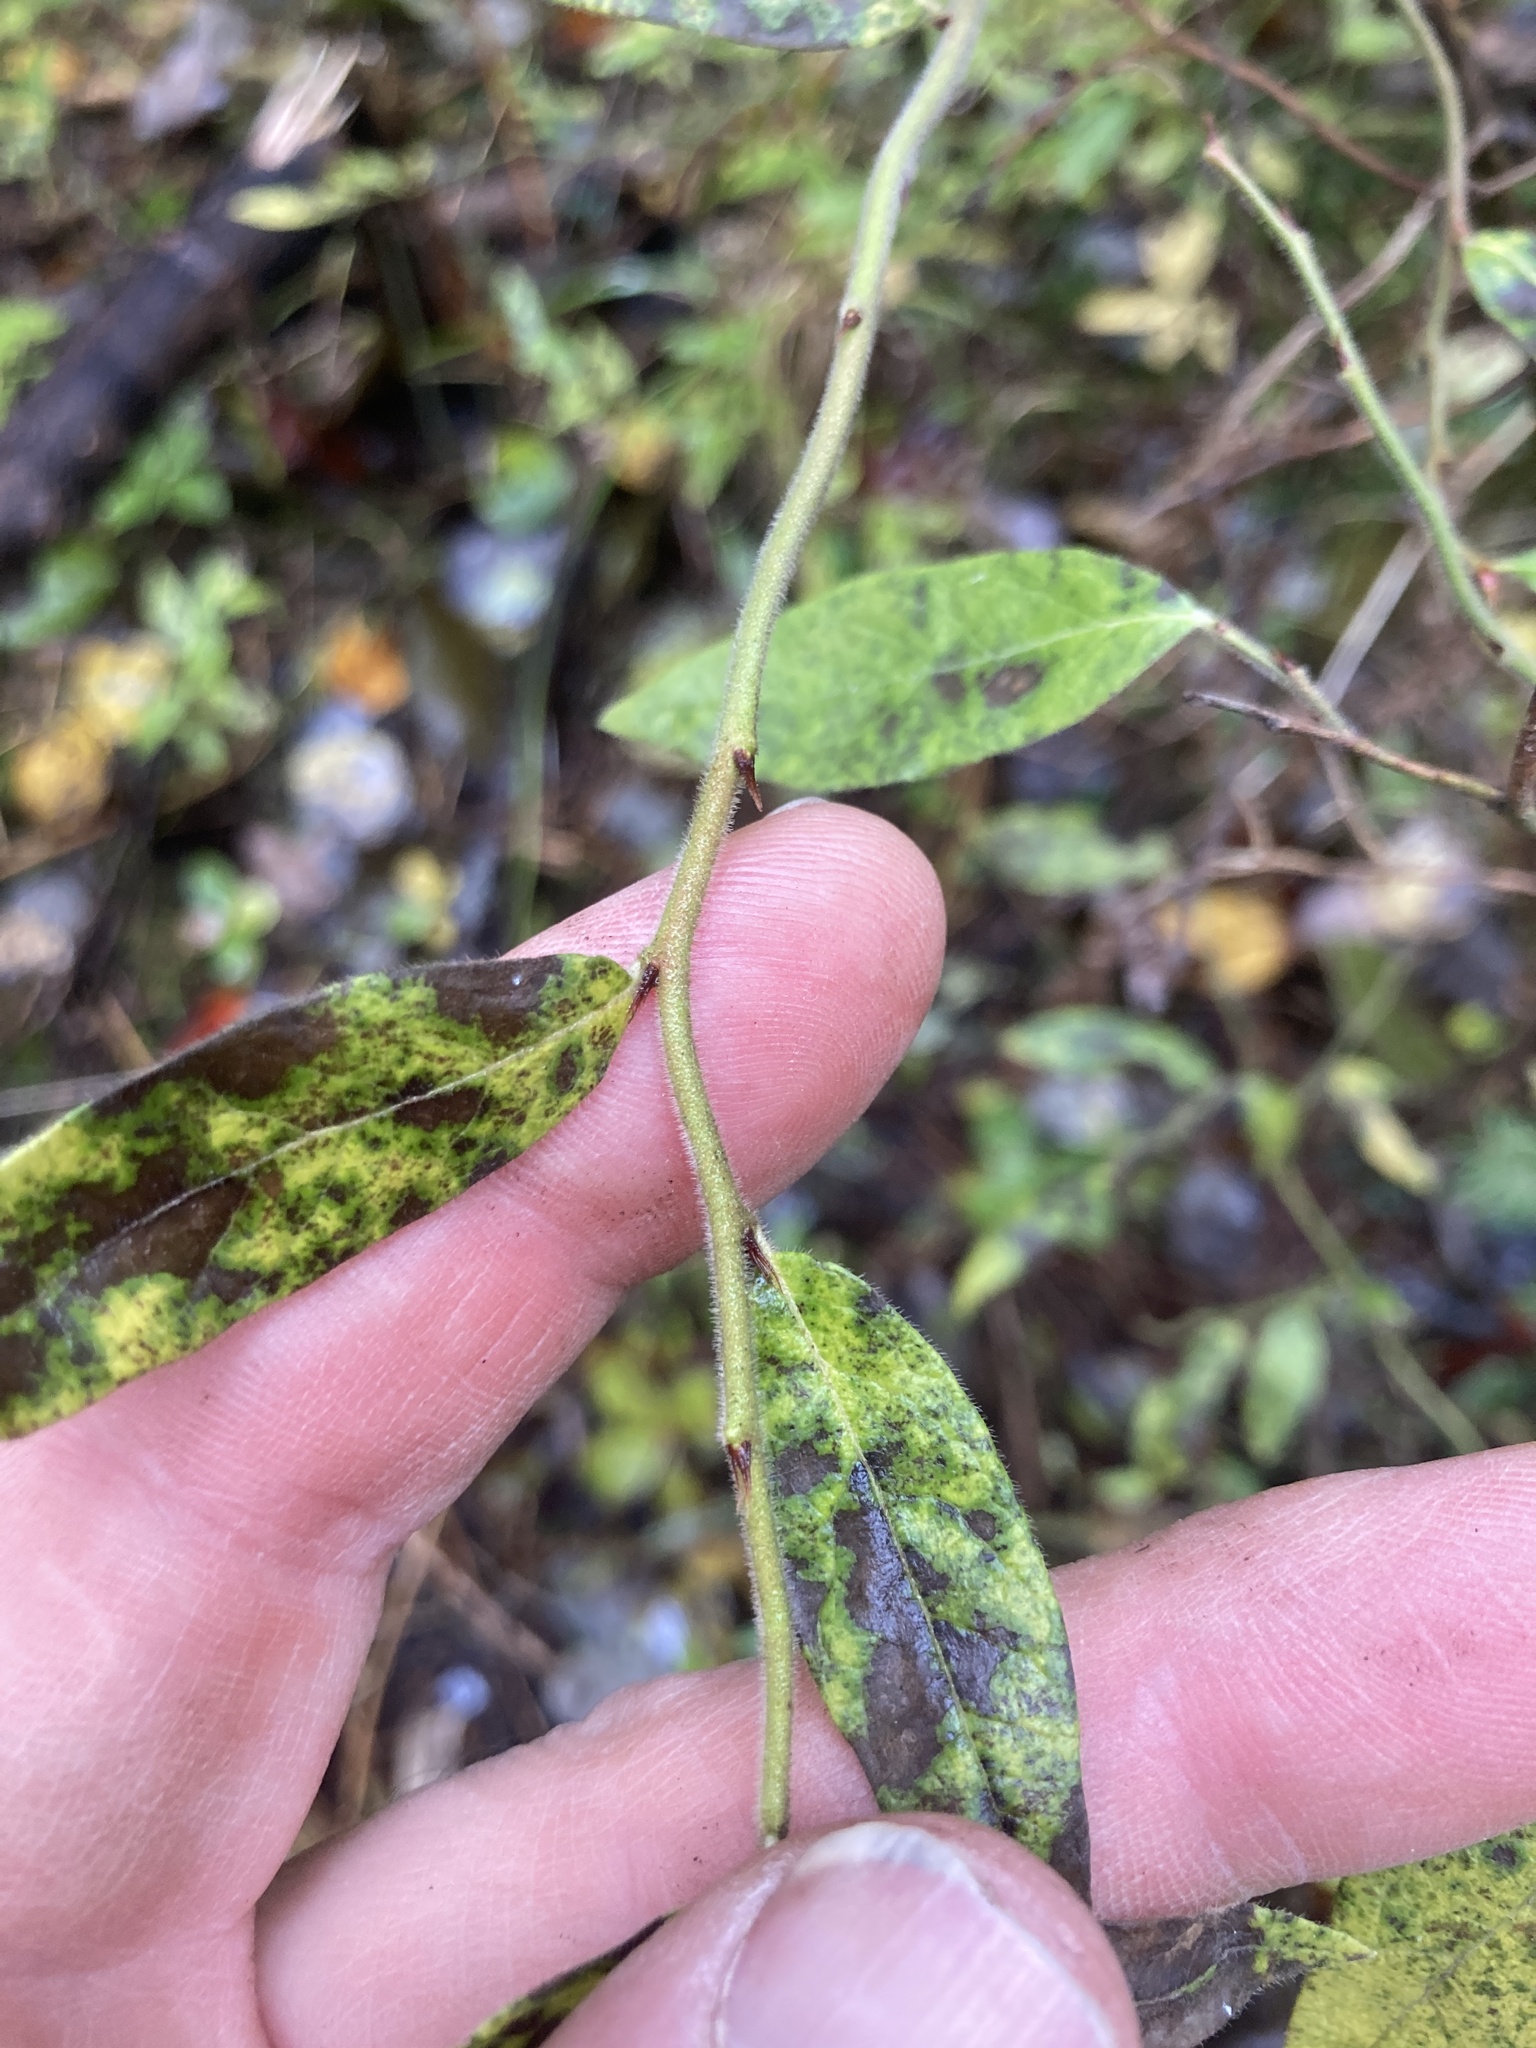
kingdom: Plantae
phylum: Tracheophyta
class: Magnoliopsida
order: Ericales
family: Ericaceae
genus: Vaccinium
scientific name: Vaccinium myrtilloides
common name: Canada blueberry
